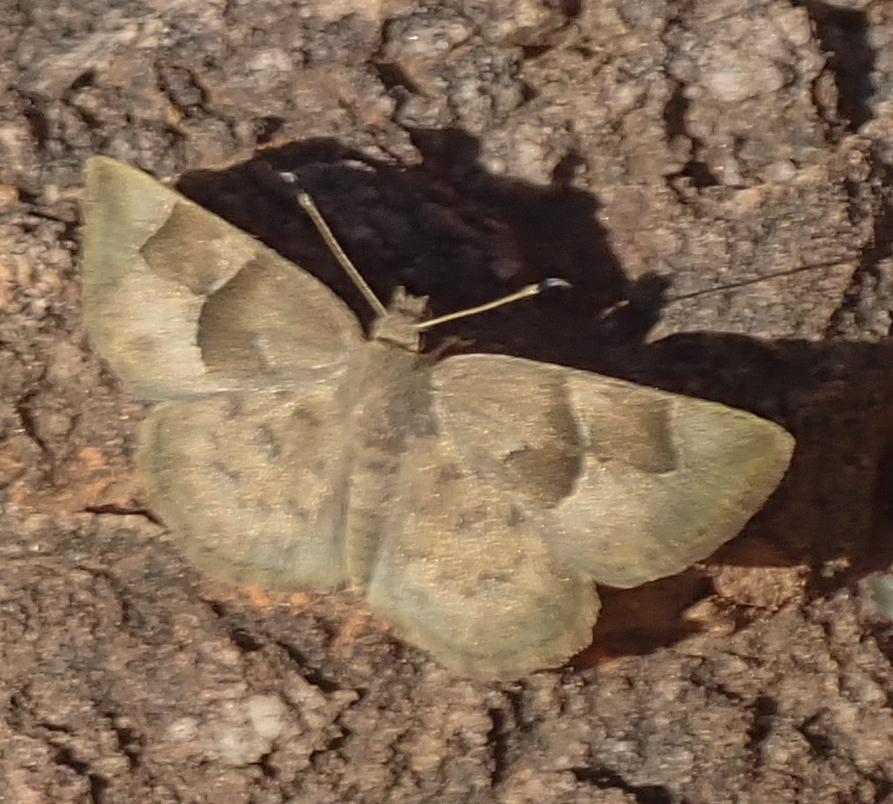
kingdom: Animalia
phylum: Arthropoda
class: Insecta
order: Lepidoptera
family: Hesperiidae
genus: Sarangesa
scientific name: Sarangesa phidyle
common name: Small elfin
